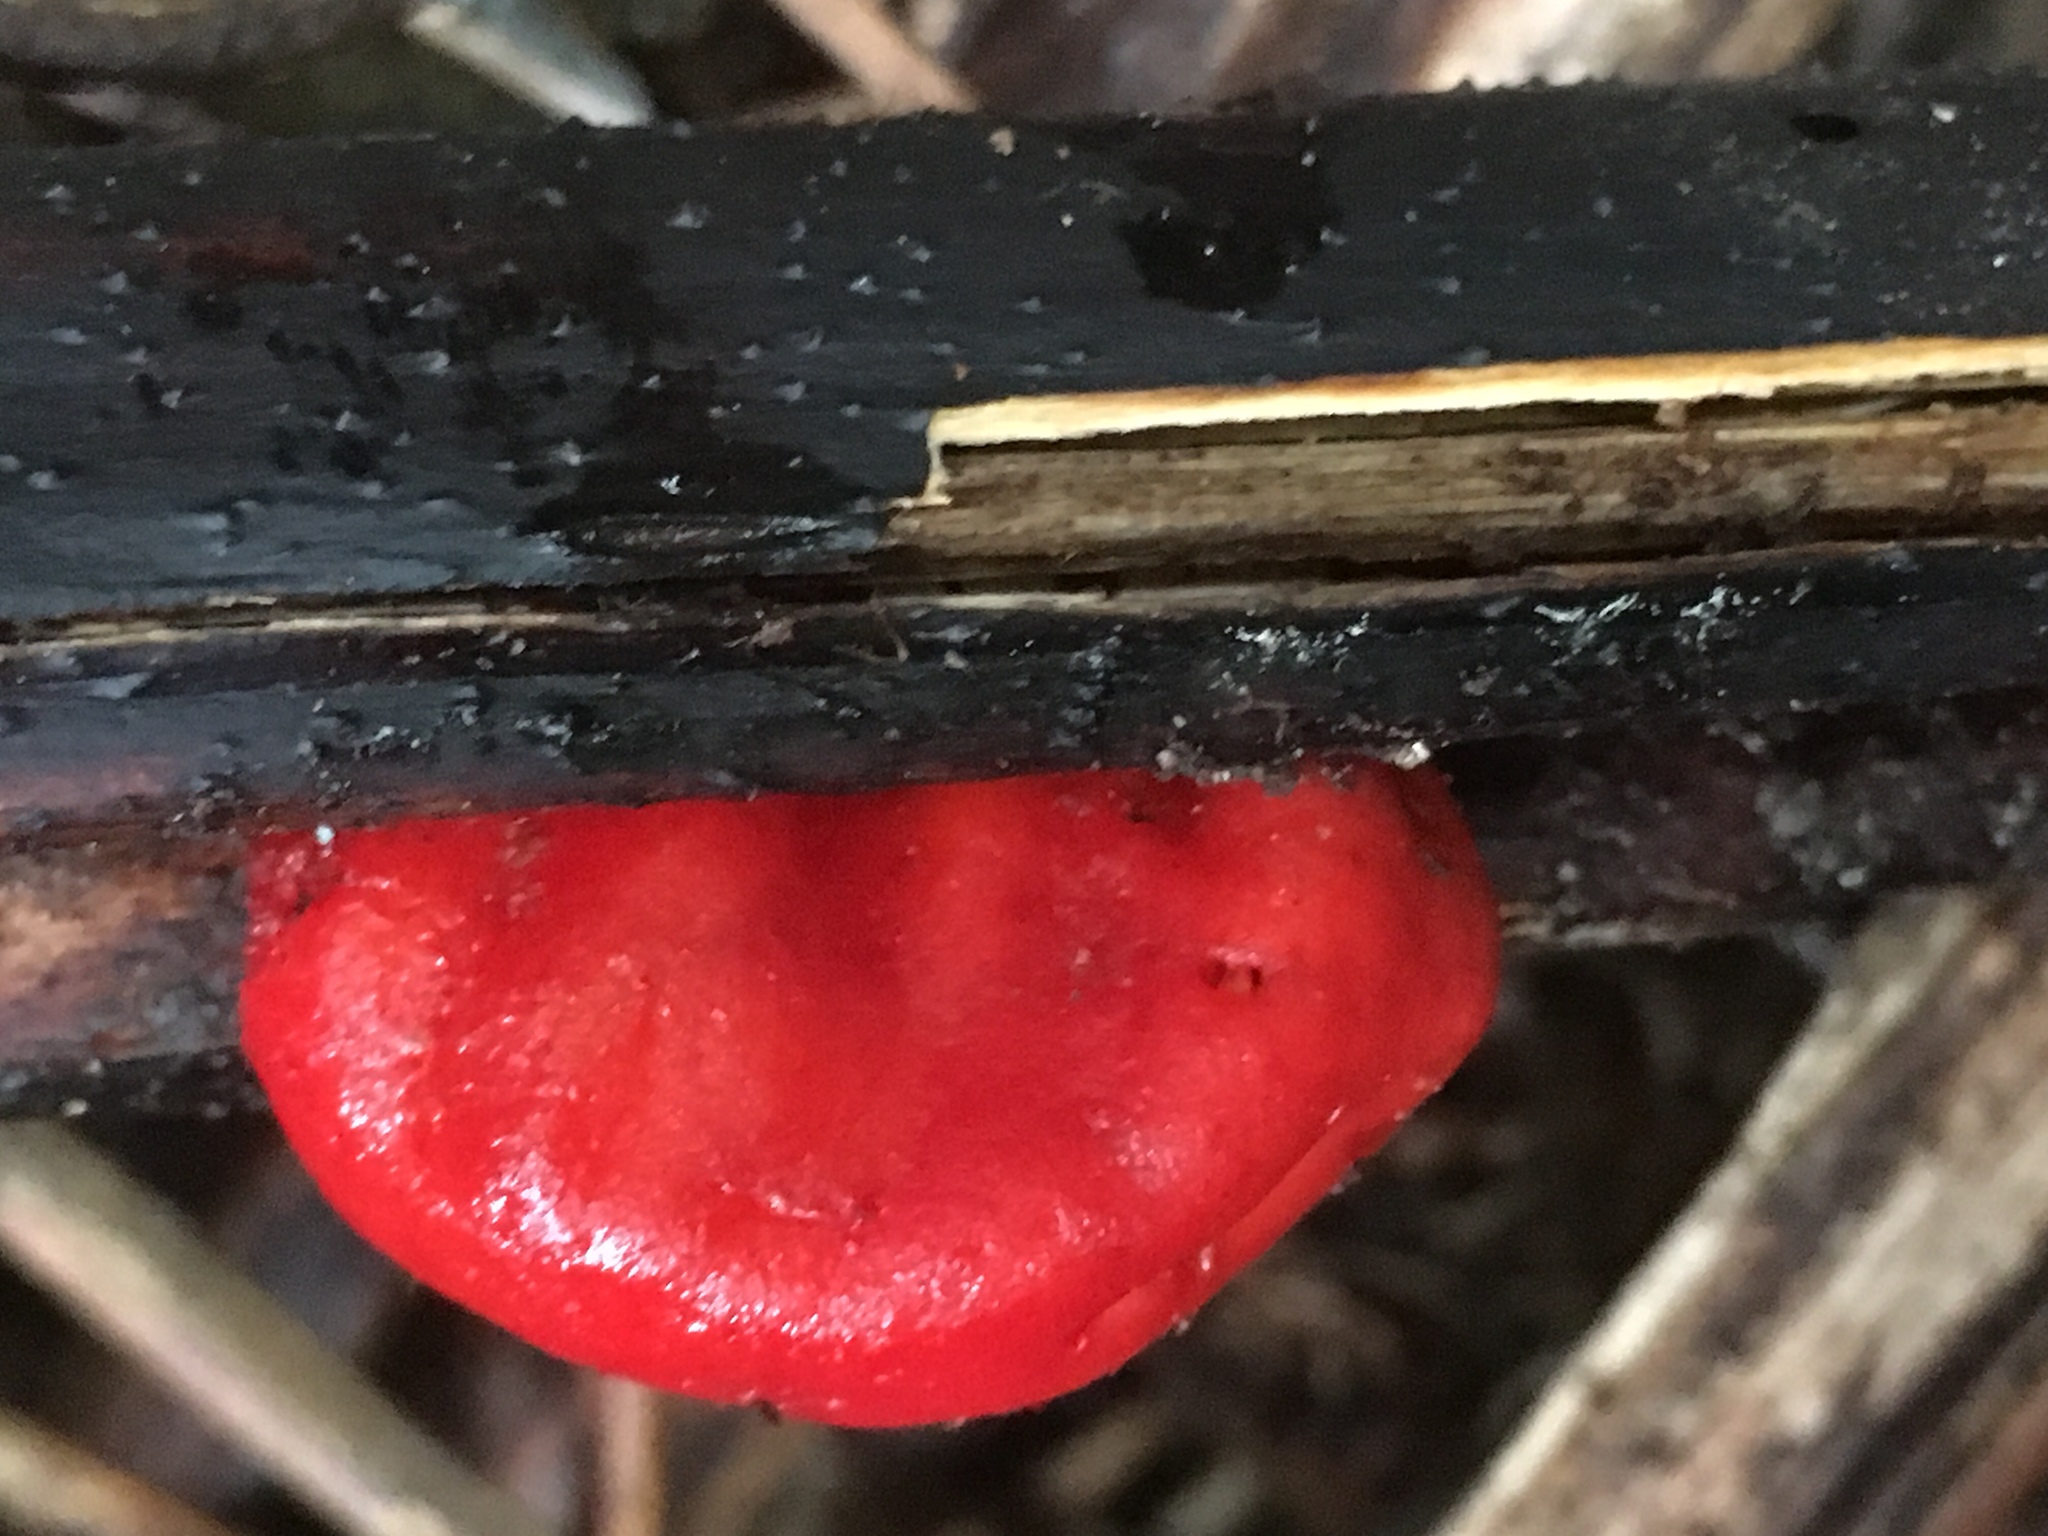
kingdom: Fungi
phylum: Basidiomycota
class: Agaricomycetes
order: Agaricales
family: Strophariaceae
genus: Leratiomyces
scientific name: Leratiomyces erythrocephalus
